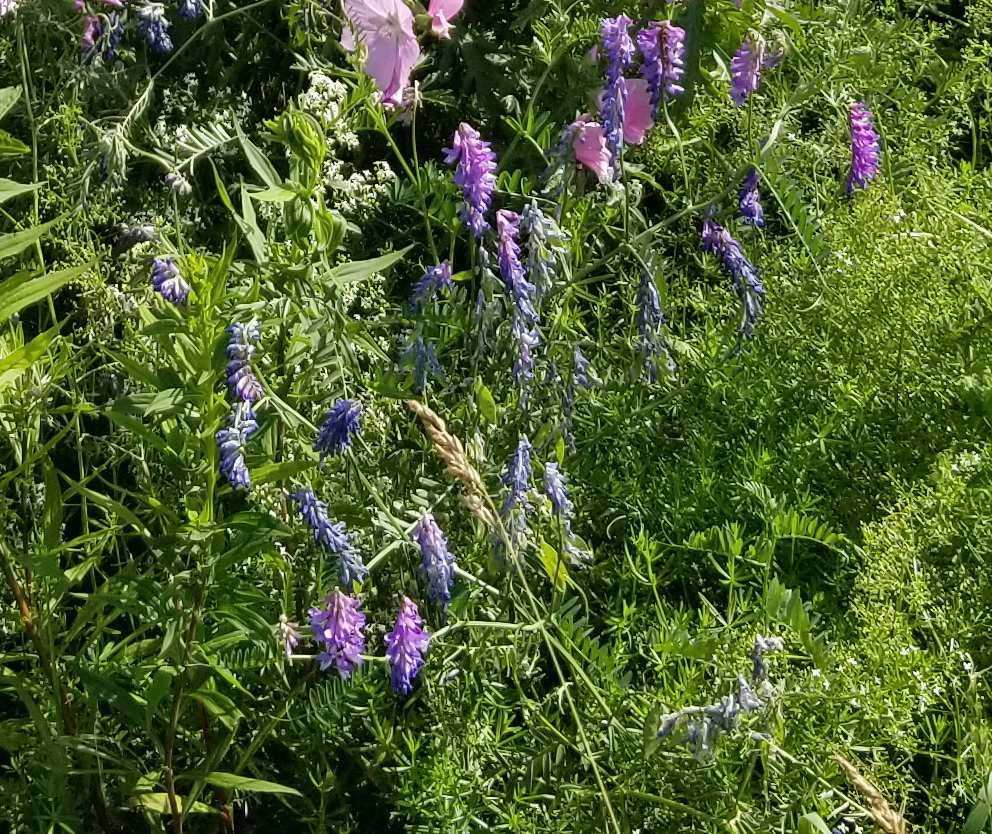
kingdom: Plantae
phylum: Tracheophyta
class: Magnoliopsida
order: Fabales
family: Fabaceae
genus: Vicia
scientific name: Vicia cracca
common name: Bird vetch
